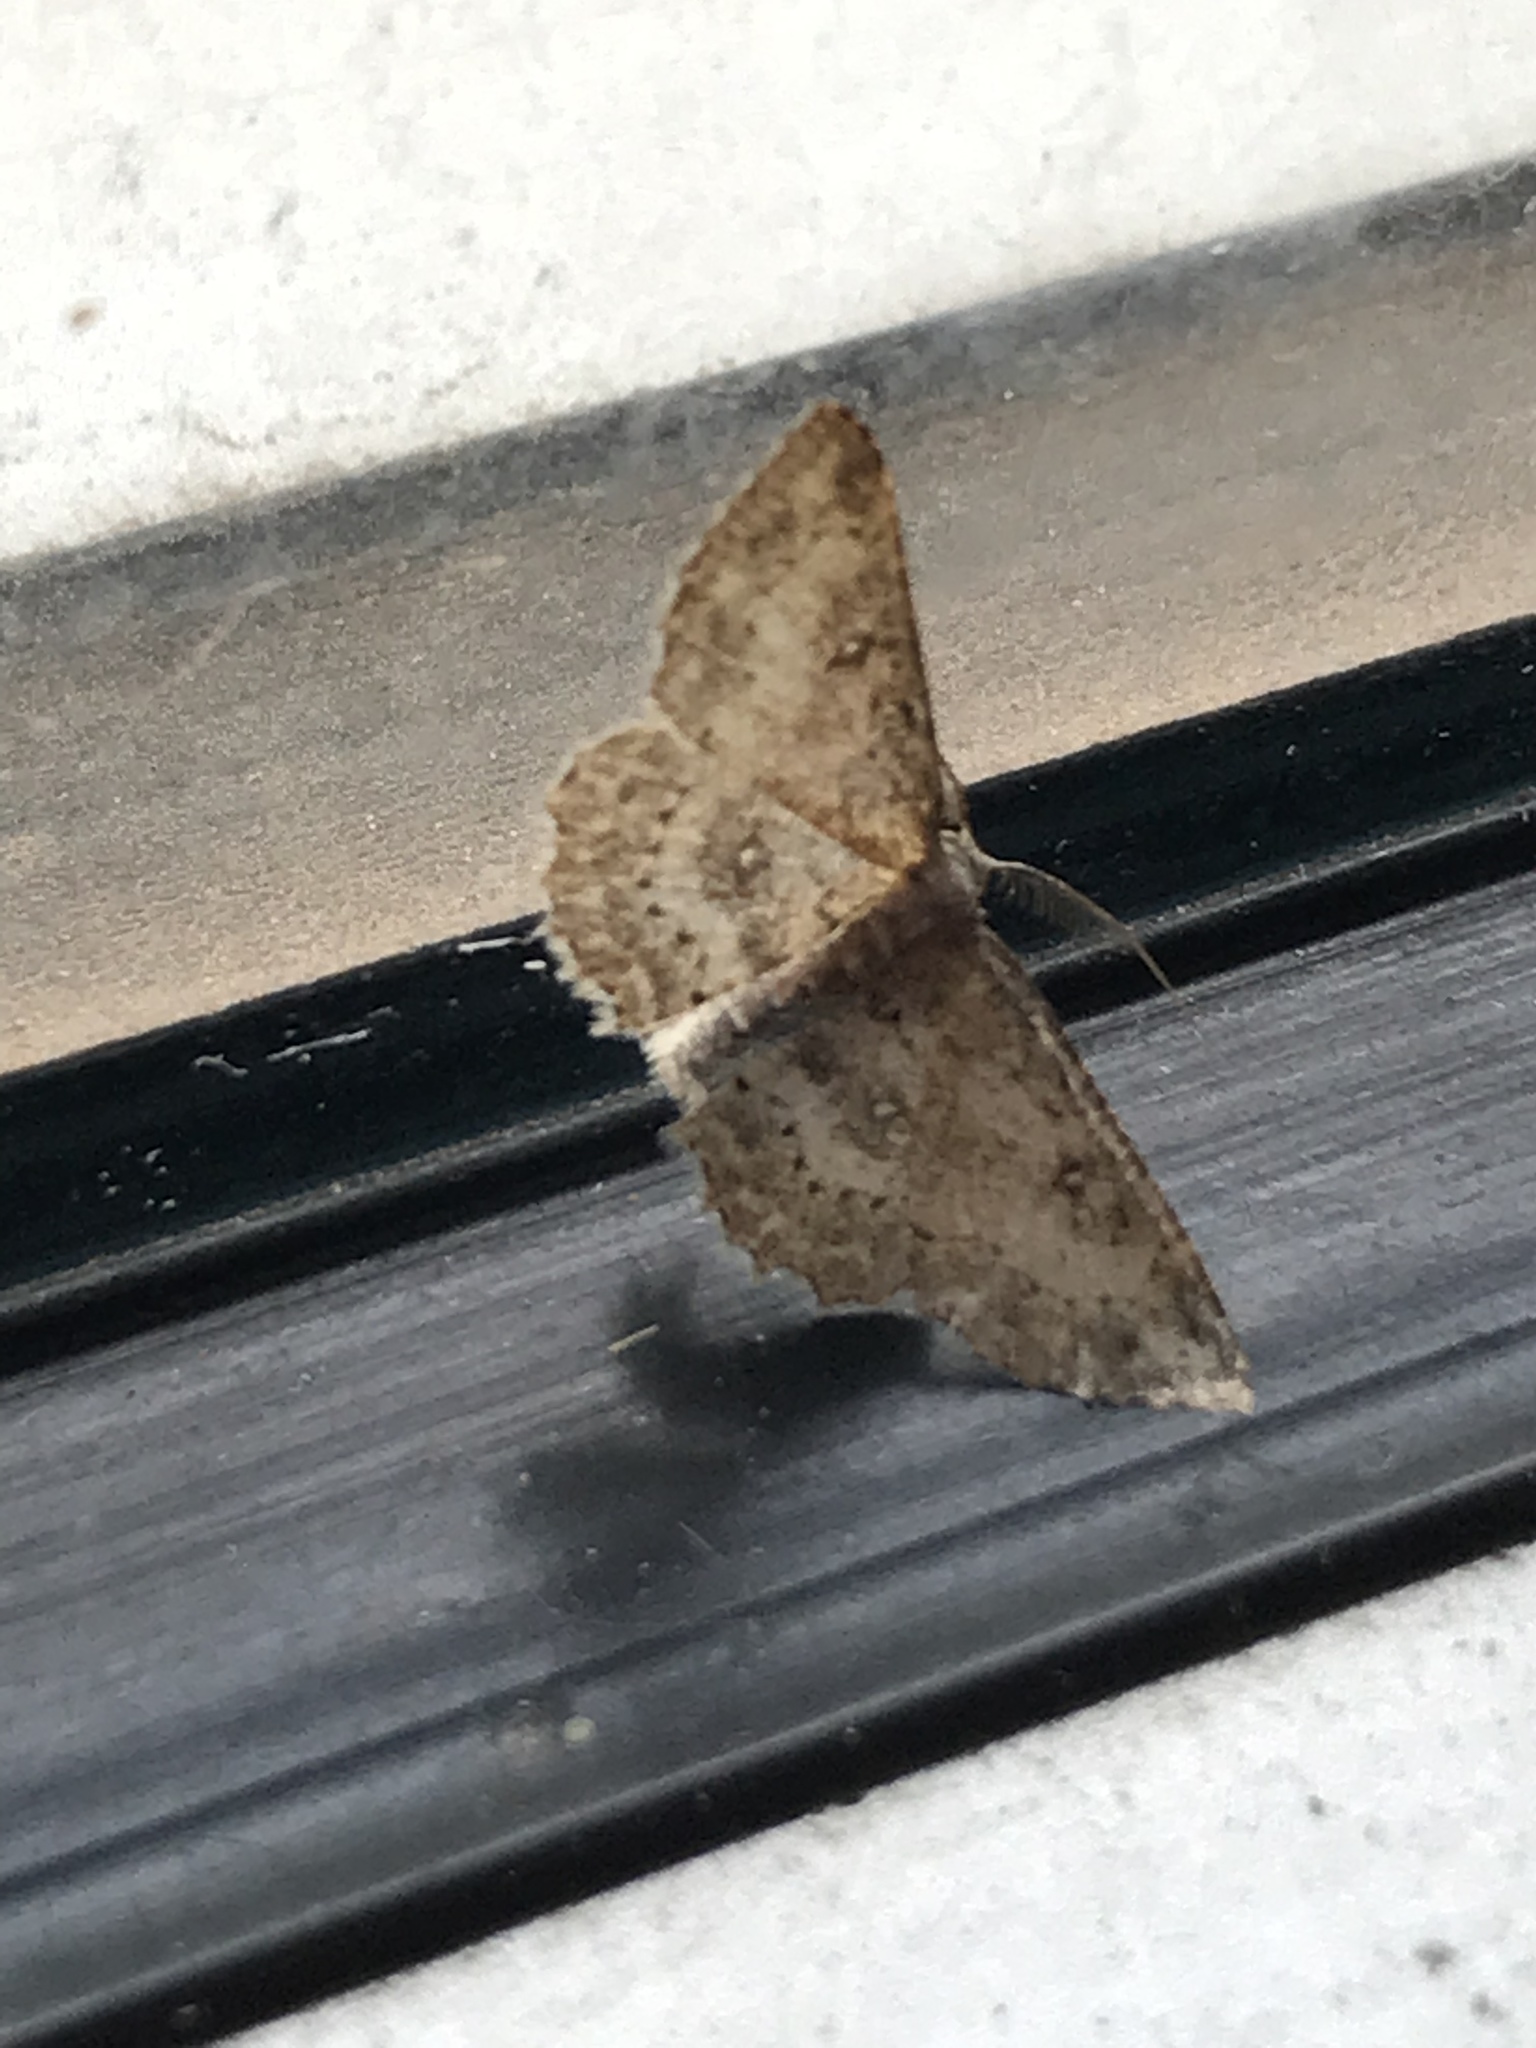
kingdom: Animalia
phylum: Arthropoda
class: Insecta
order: Lepidoptera
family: Geometridae
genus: Cyclophora
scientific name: Cyclophora nanaria
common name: Cankerworm
